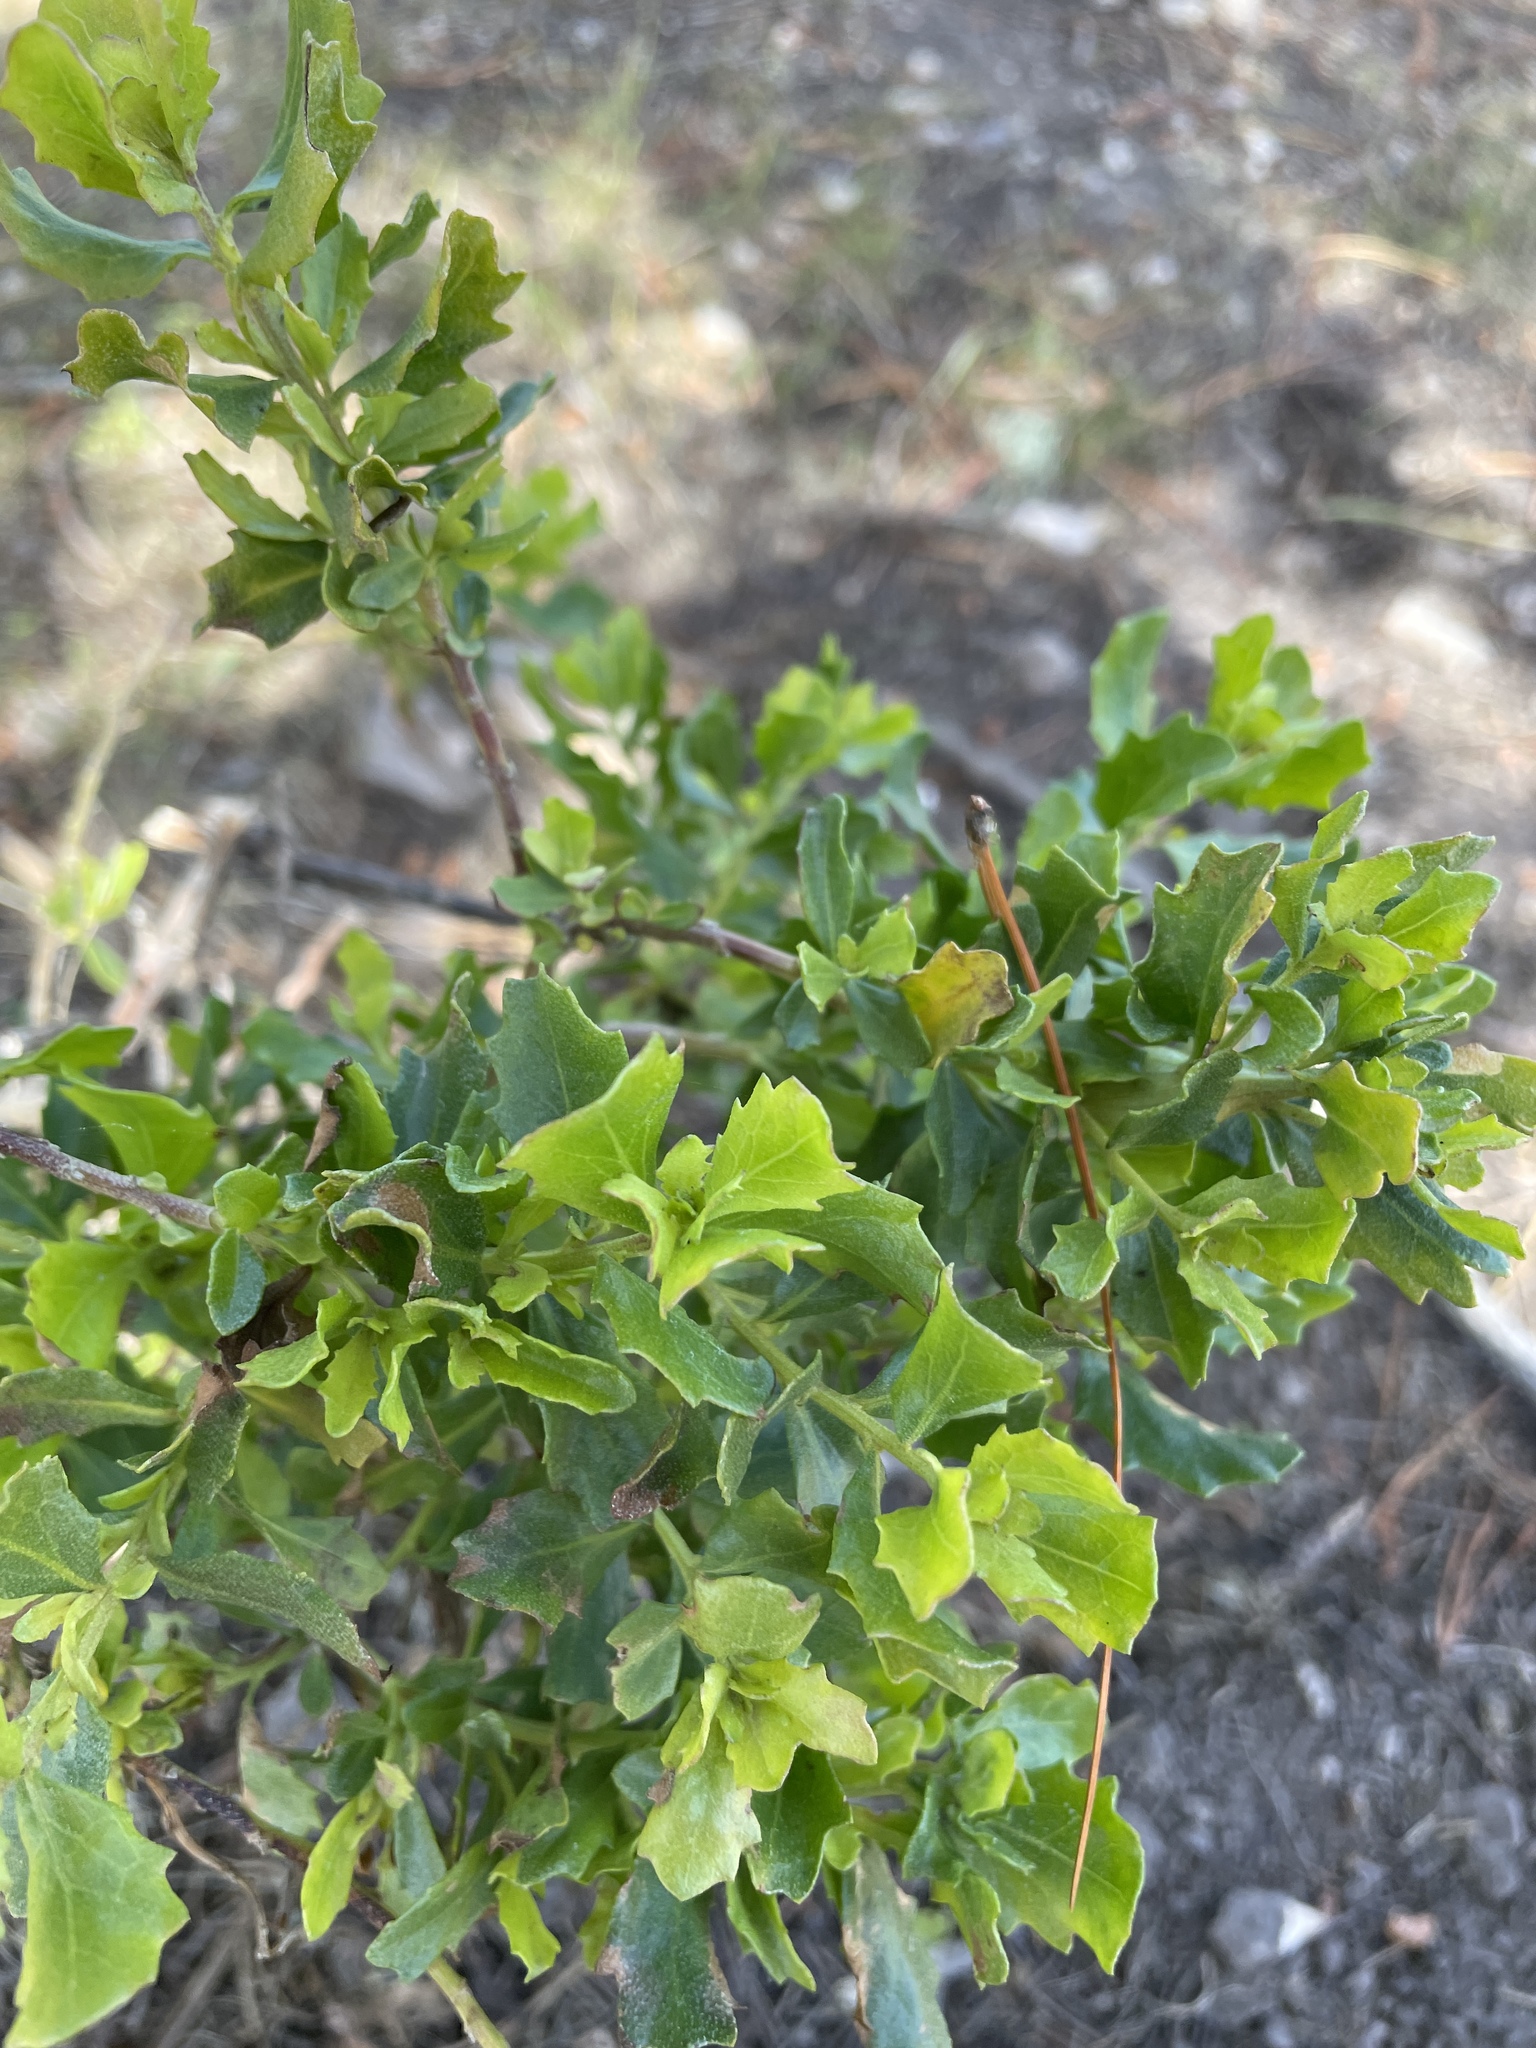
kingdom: Plantae
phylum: Tracheophyta
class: Magnoliopsida
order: Asterales
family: Asteraceae
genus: Baccharis
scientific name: Baccharis pilularis
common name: Coyotebrush
